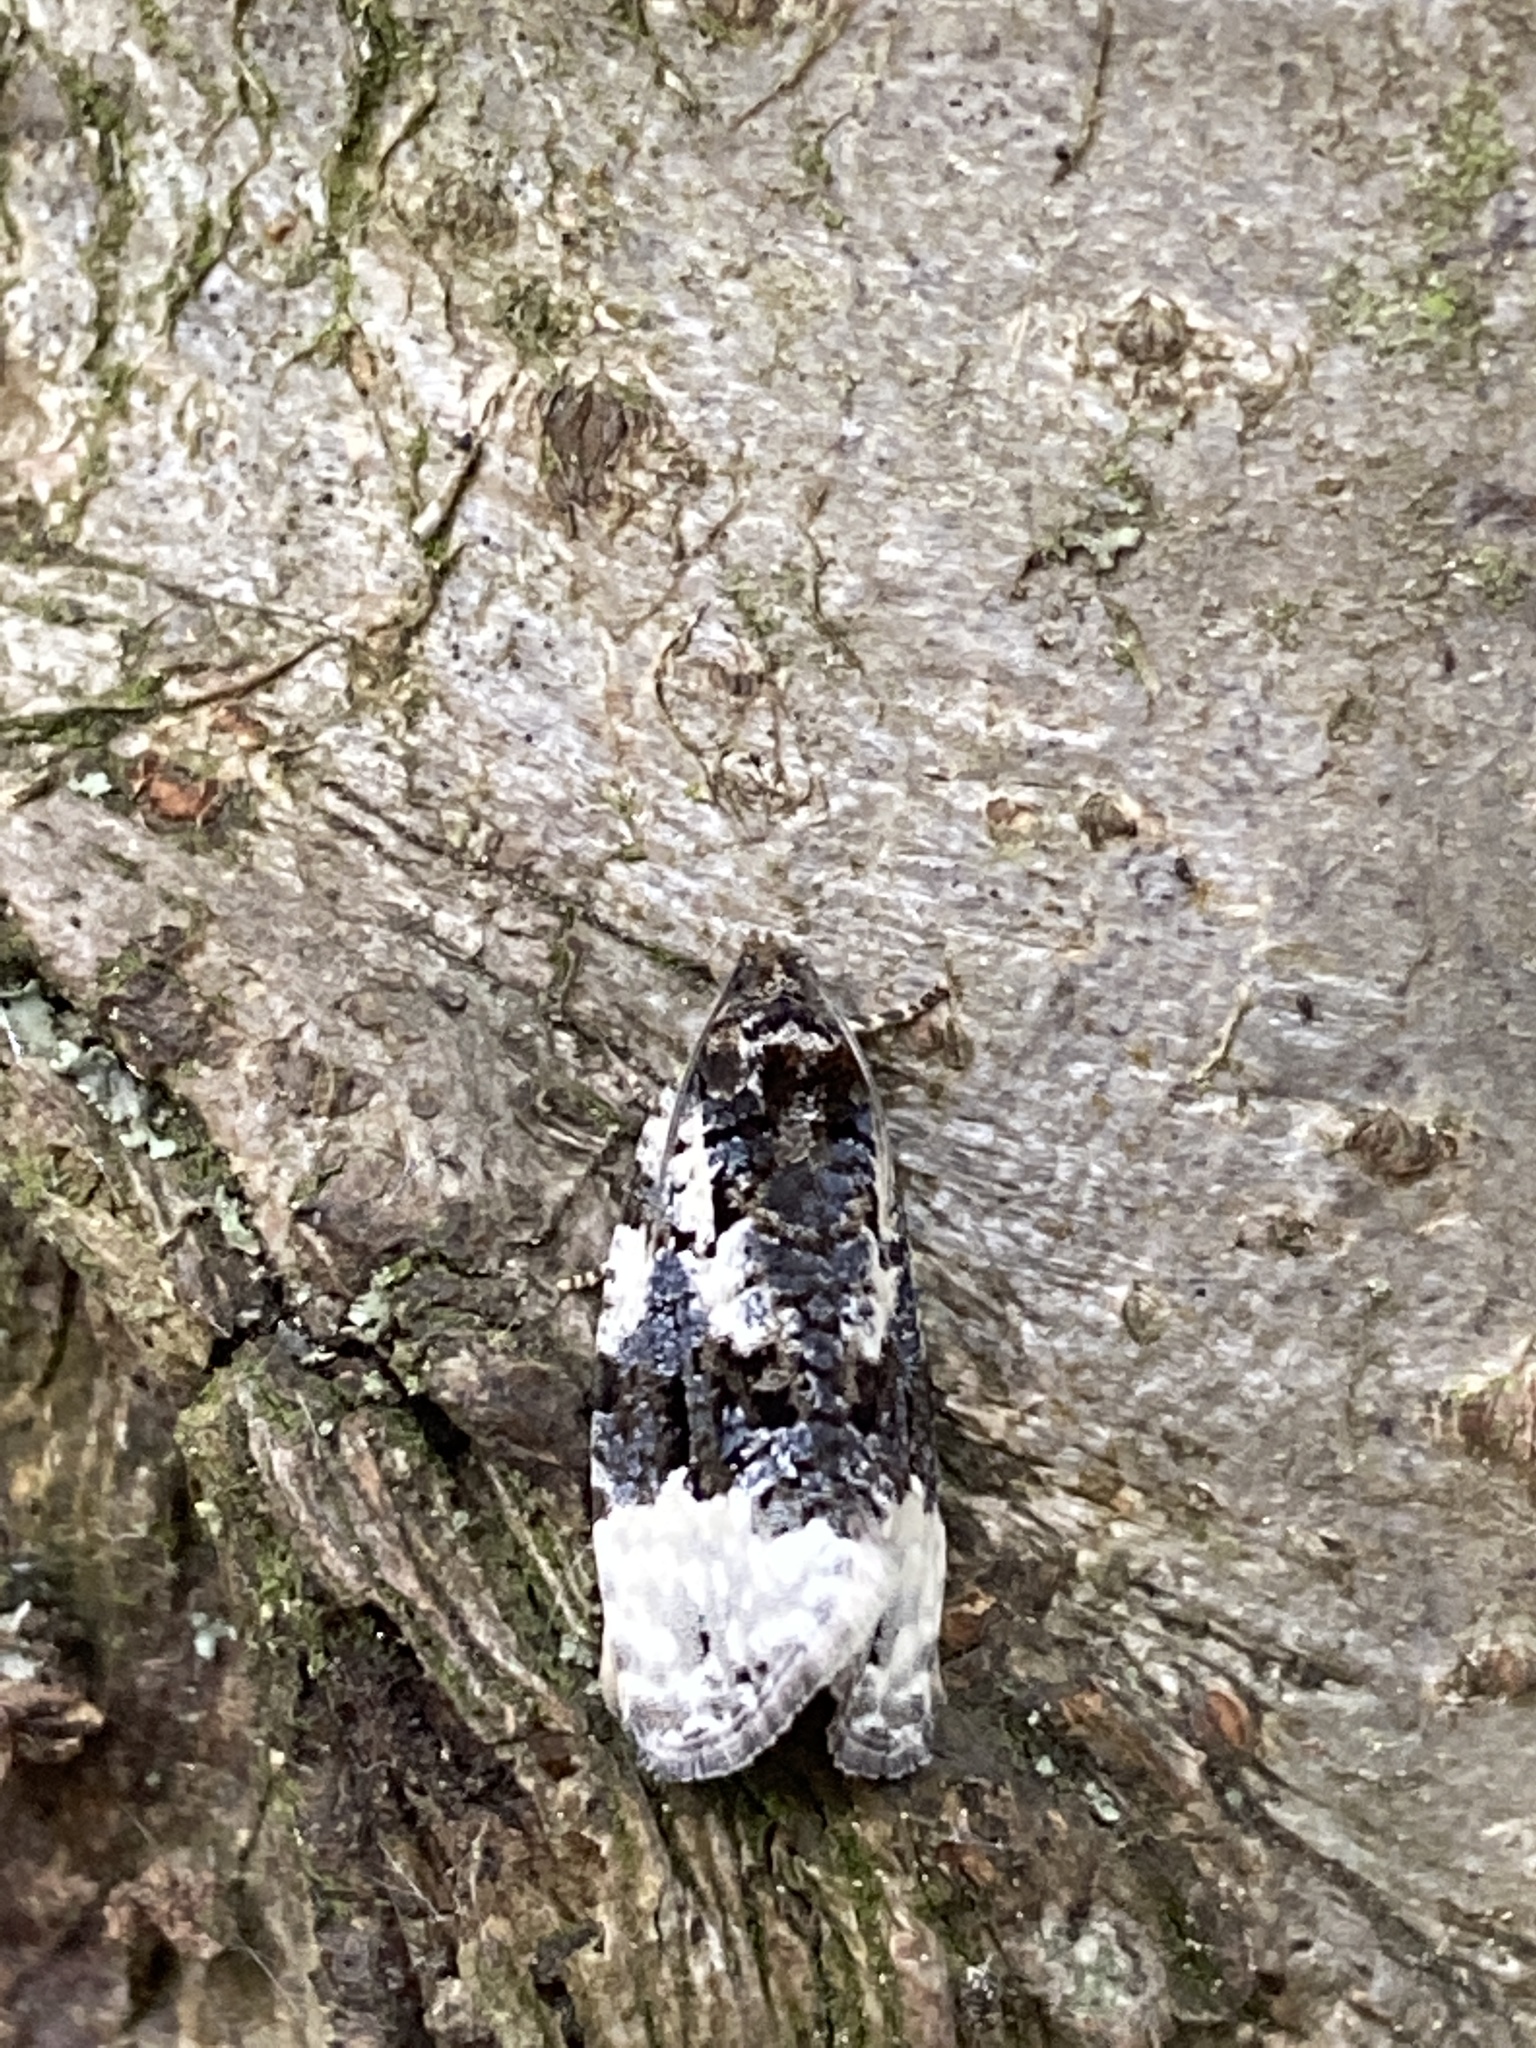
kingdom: Animalia
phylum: Arthropoda
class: Insecta
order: Lepidoptera
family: Tortricidae
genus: Apotomis
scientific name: Apotomis turbidana
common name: White-shouldered marble
